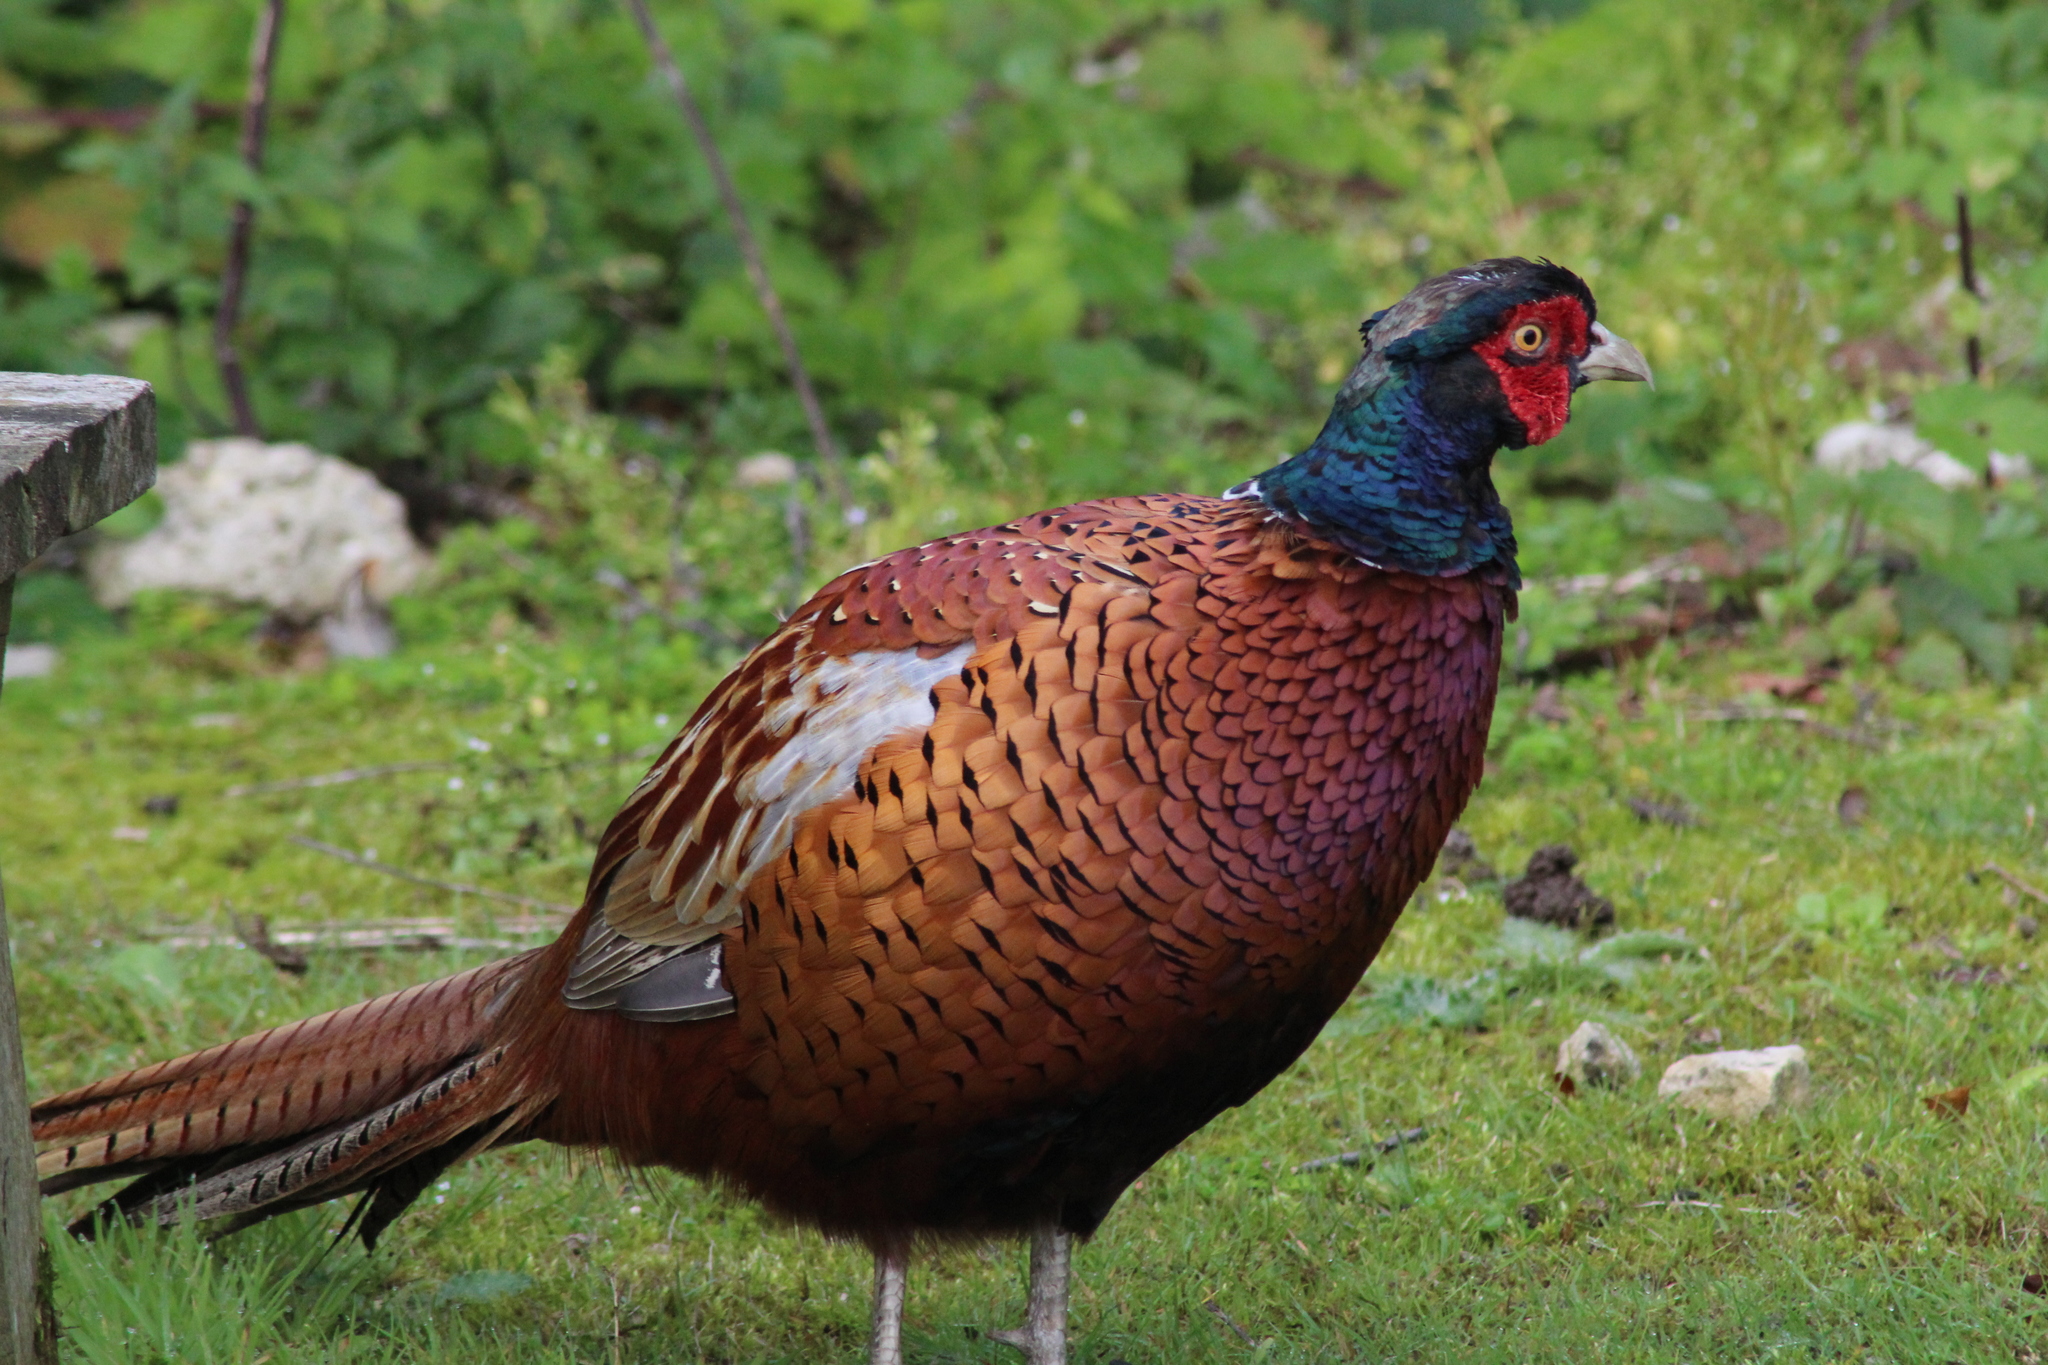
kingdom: Animalia
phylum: Chordata
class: Aves
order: Galliformes
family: Phasianidae
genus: Phasianus
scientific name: Phasianus colchicus
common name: Common pheasant
